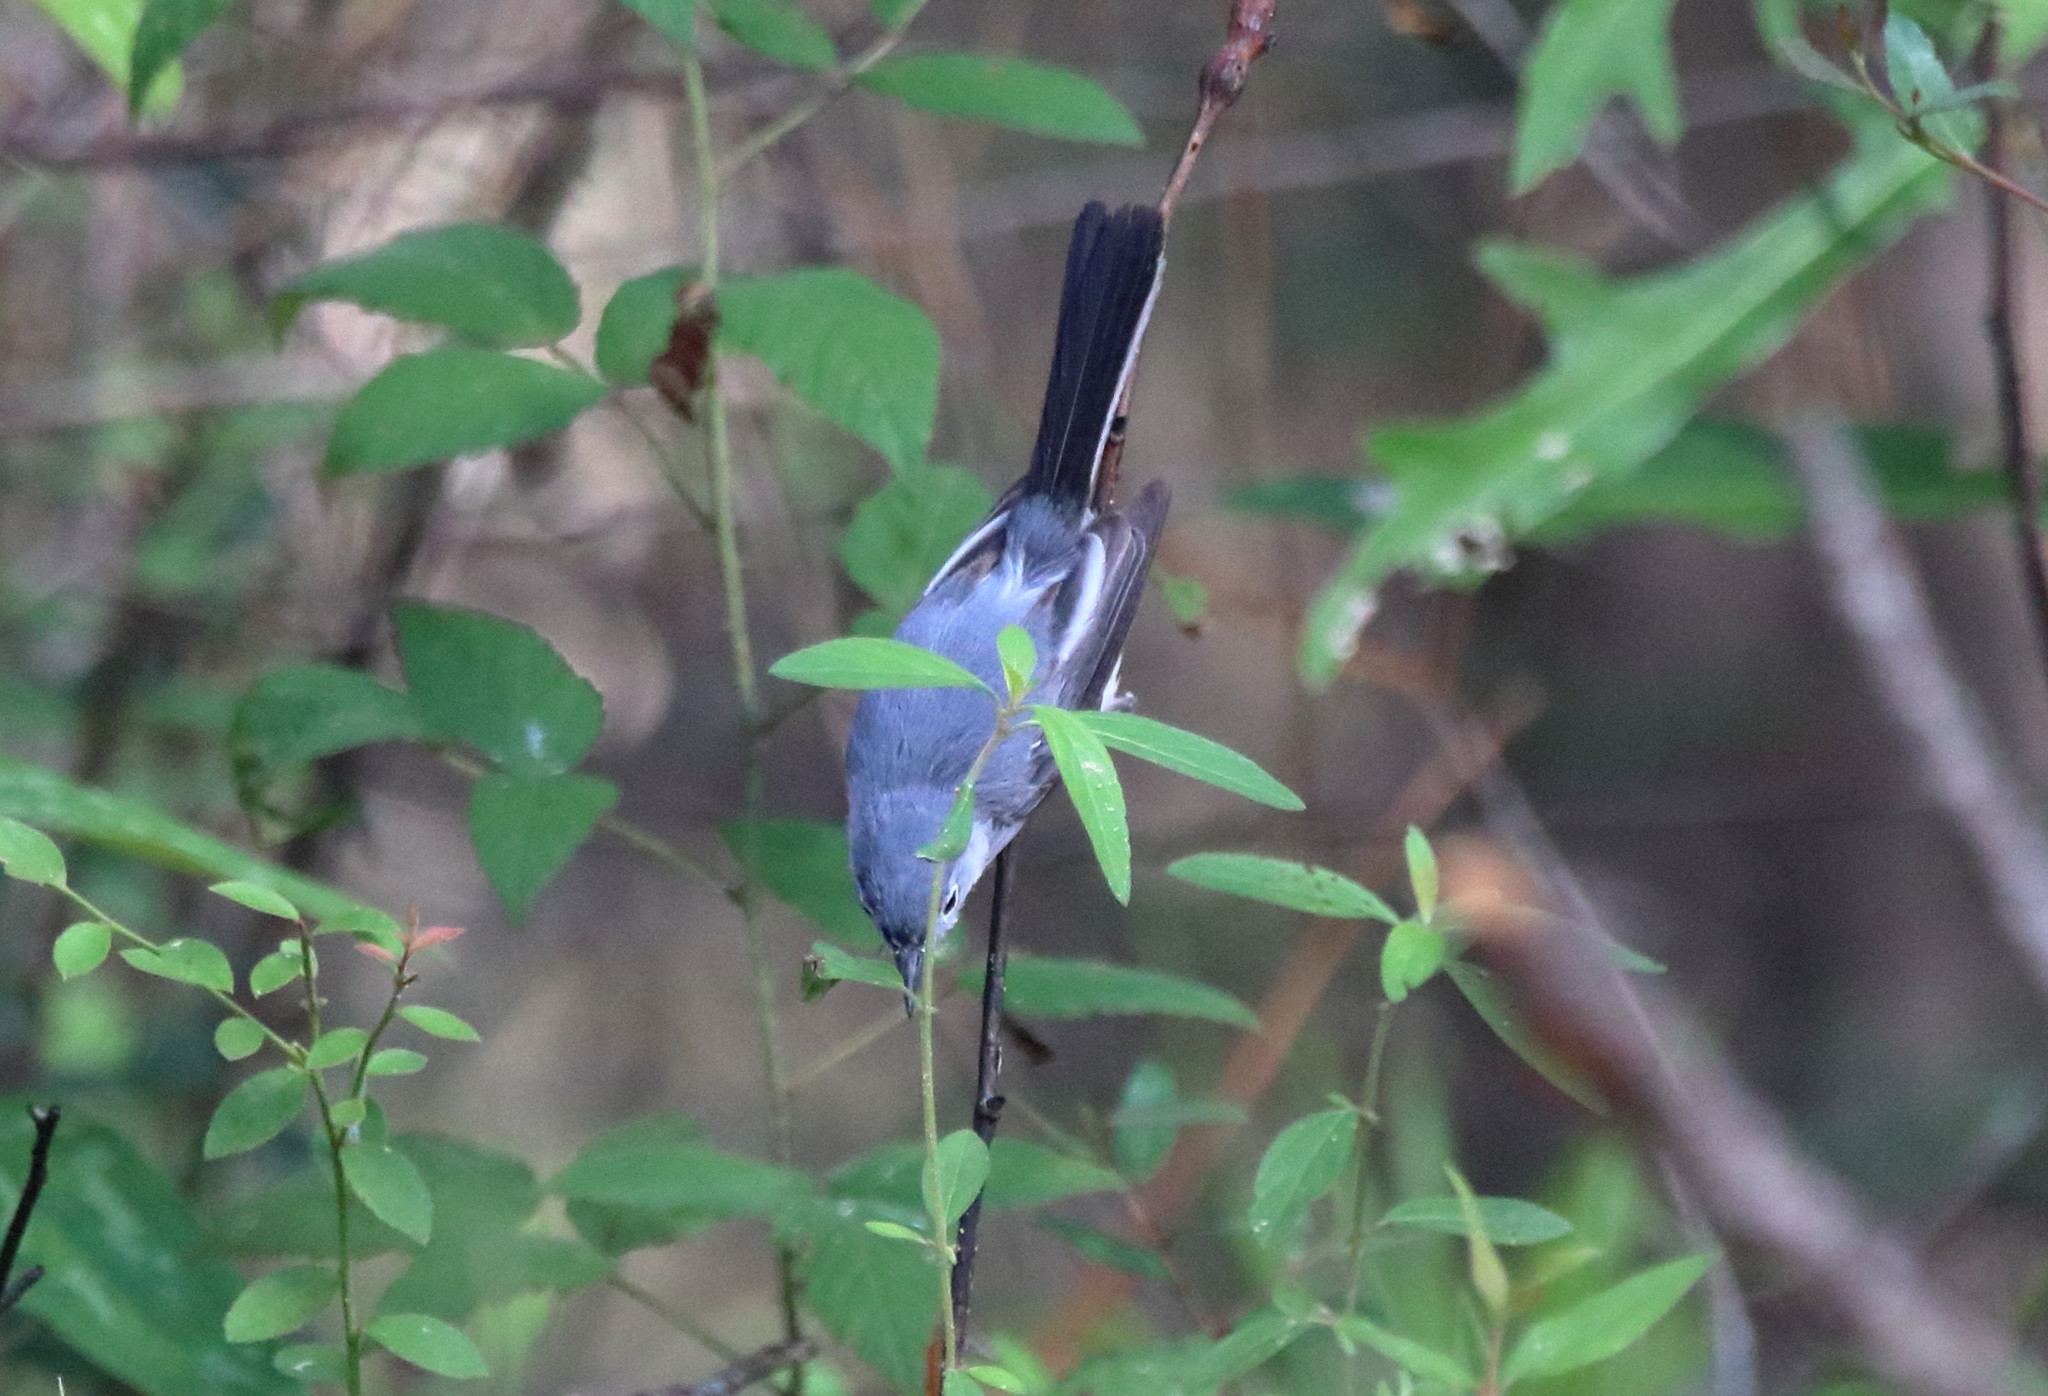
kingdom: Animalia
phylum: Chordata
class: Aves
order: Passeriformes
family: Polioptilidae
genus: Polioptila
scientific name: Polioptila caerulea
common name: Blue-gray gnatcatcher
